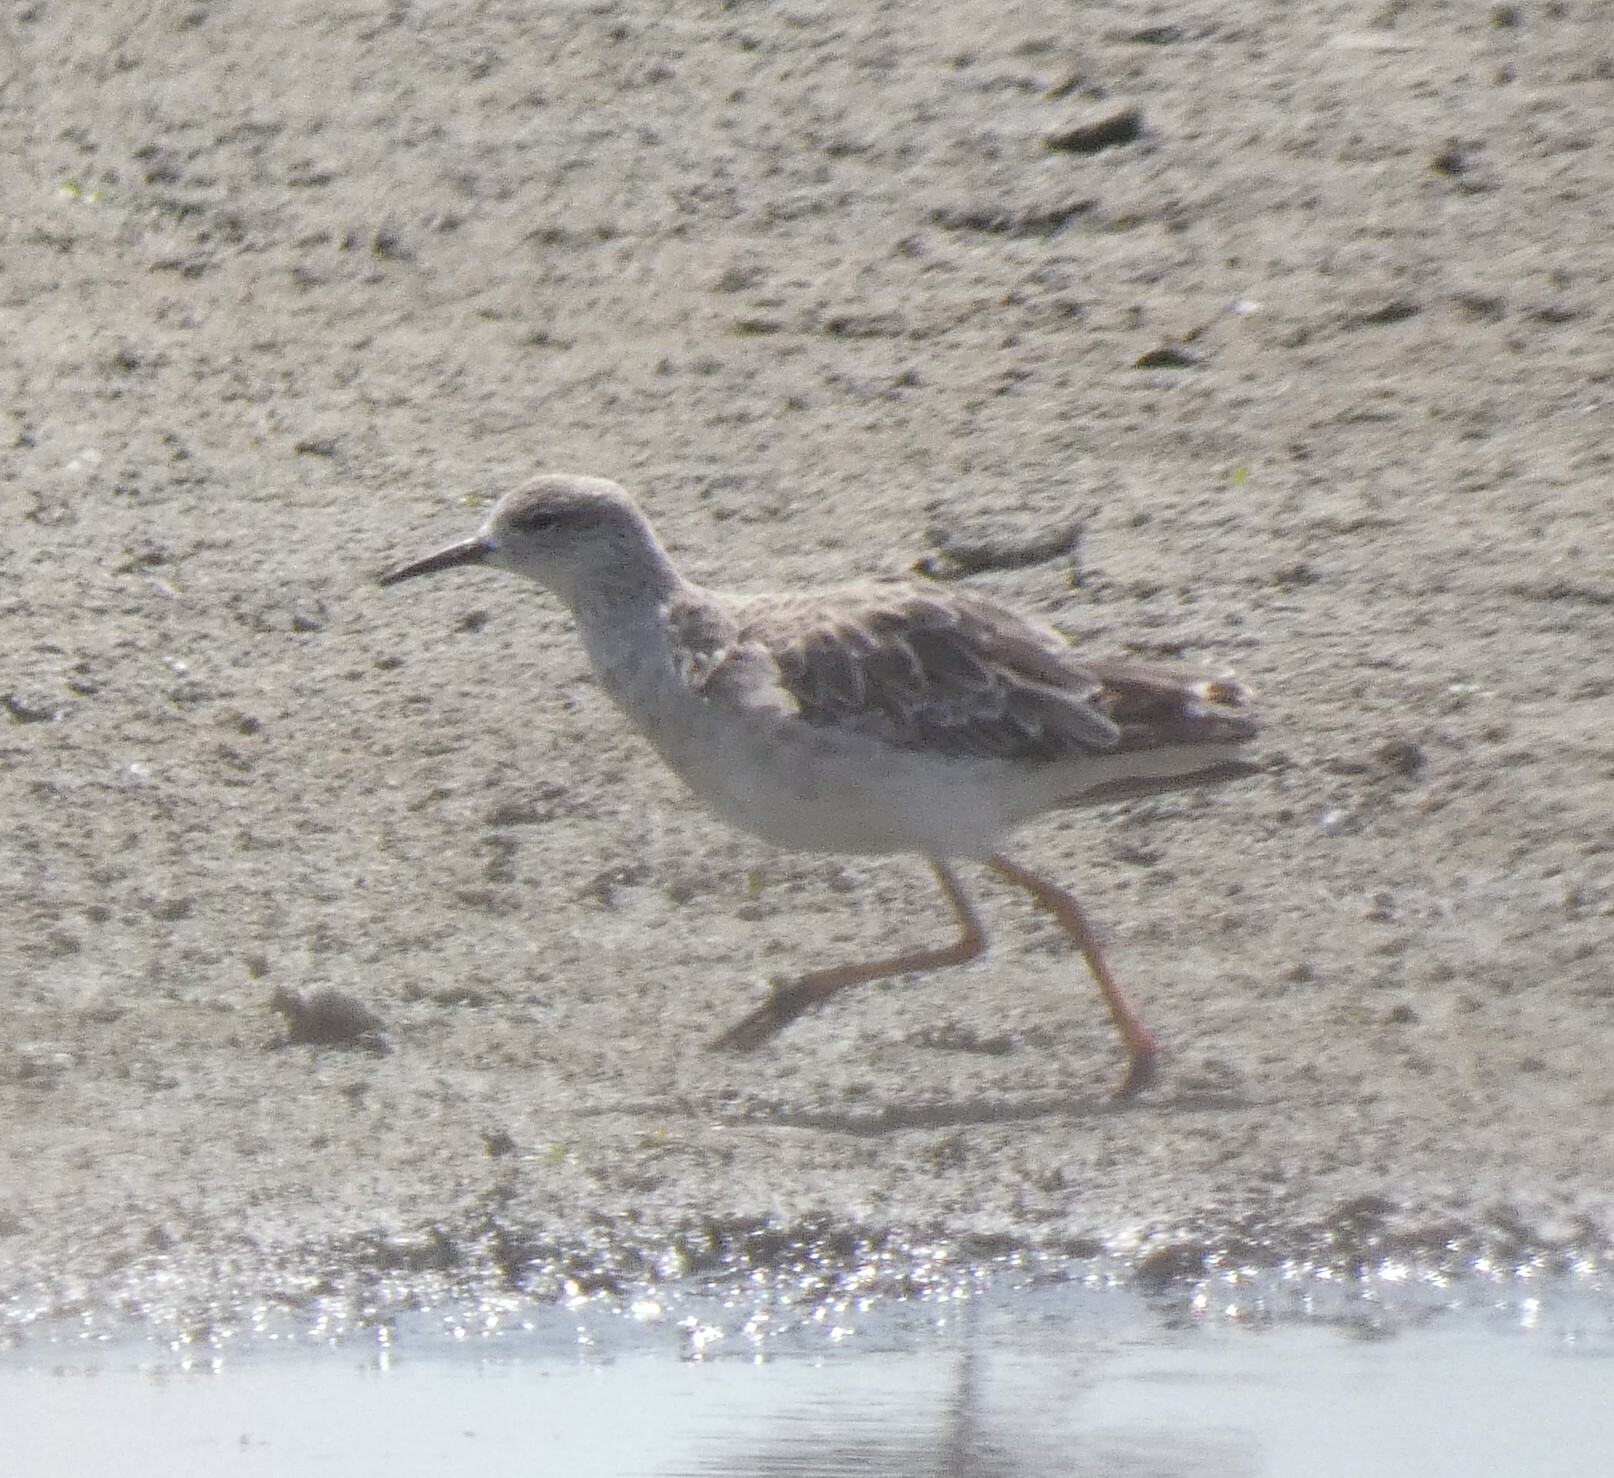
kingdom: Animalia
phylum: Chordata
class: Aves
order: Charadriiformes
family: Scolopacidae
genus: Calidris
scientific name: Calidris pugnax
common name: Ruff
